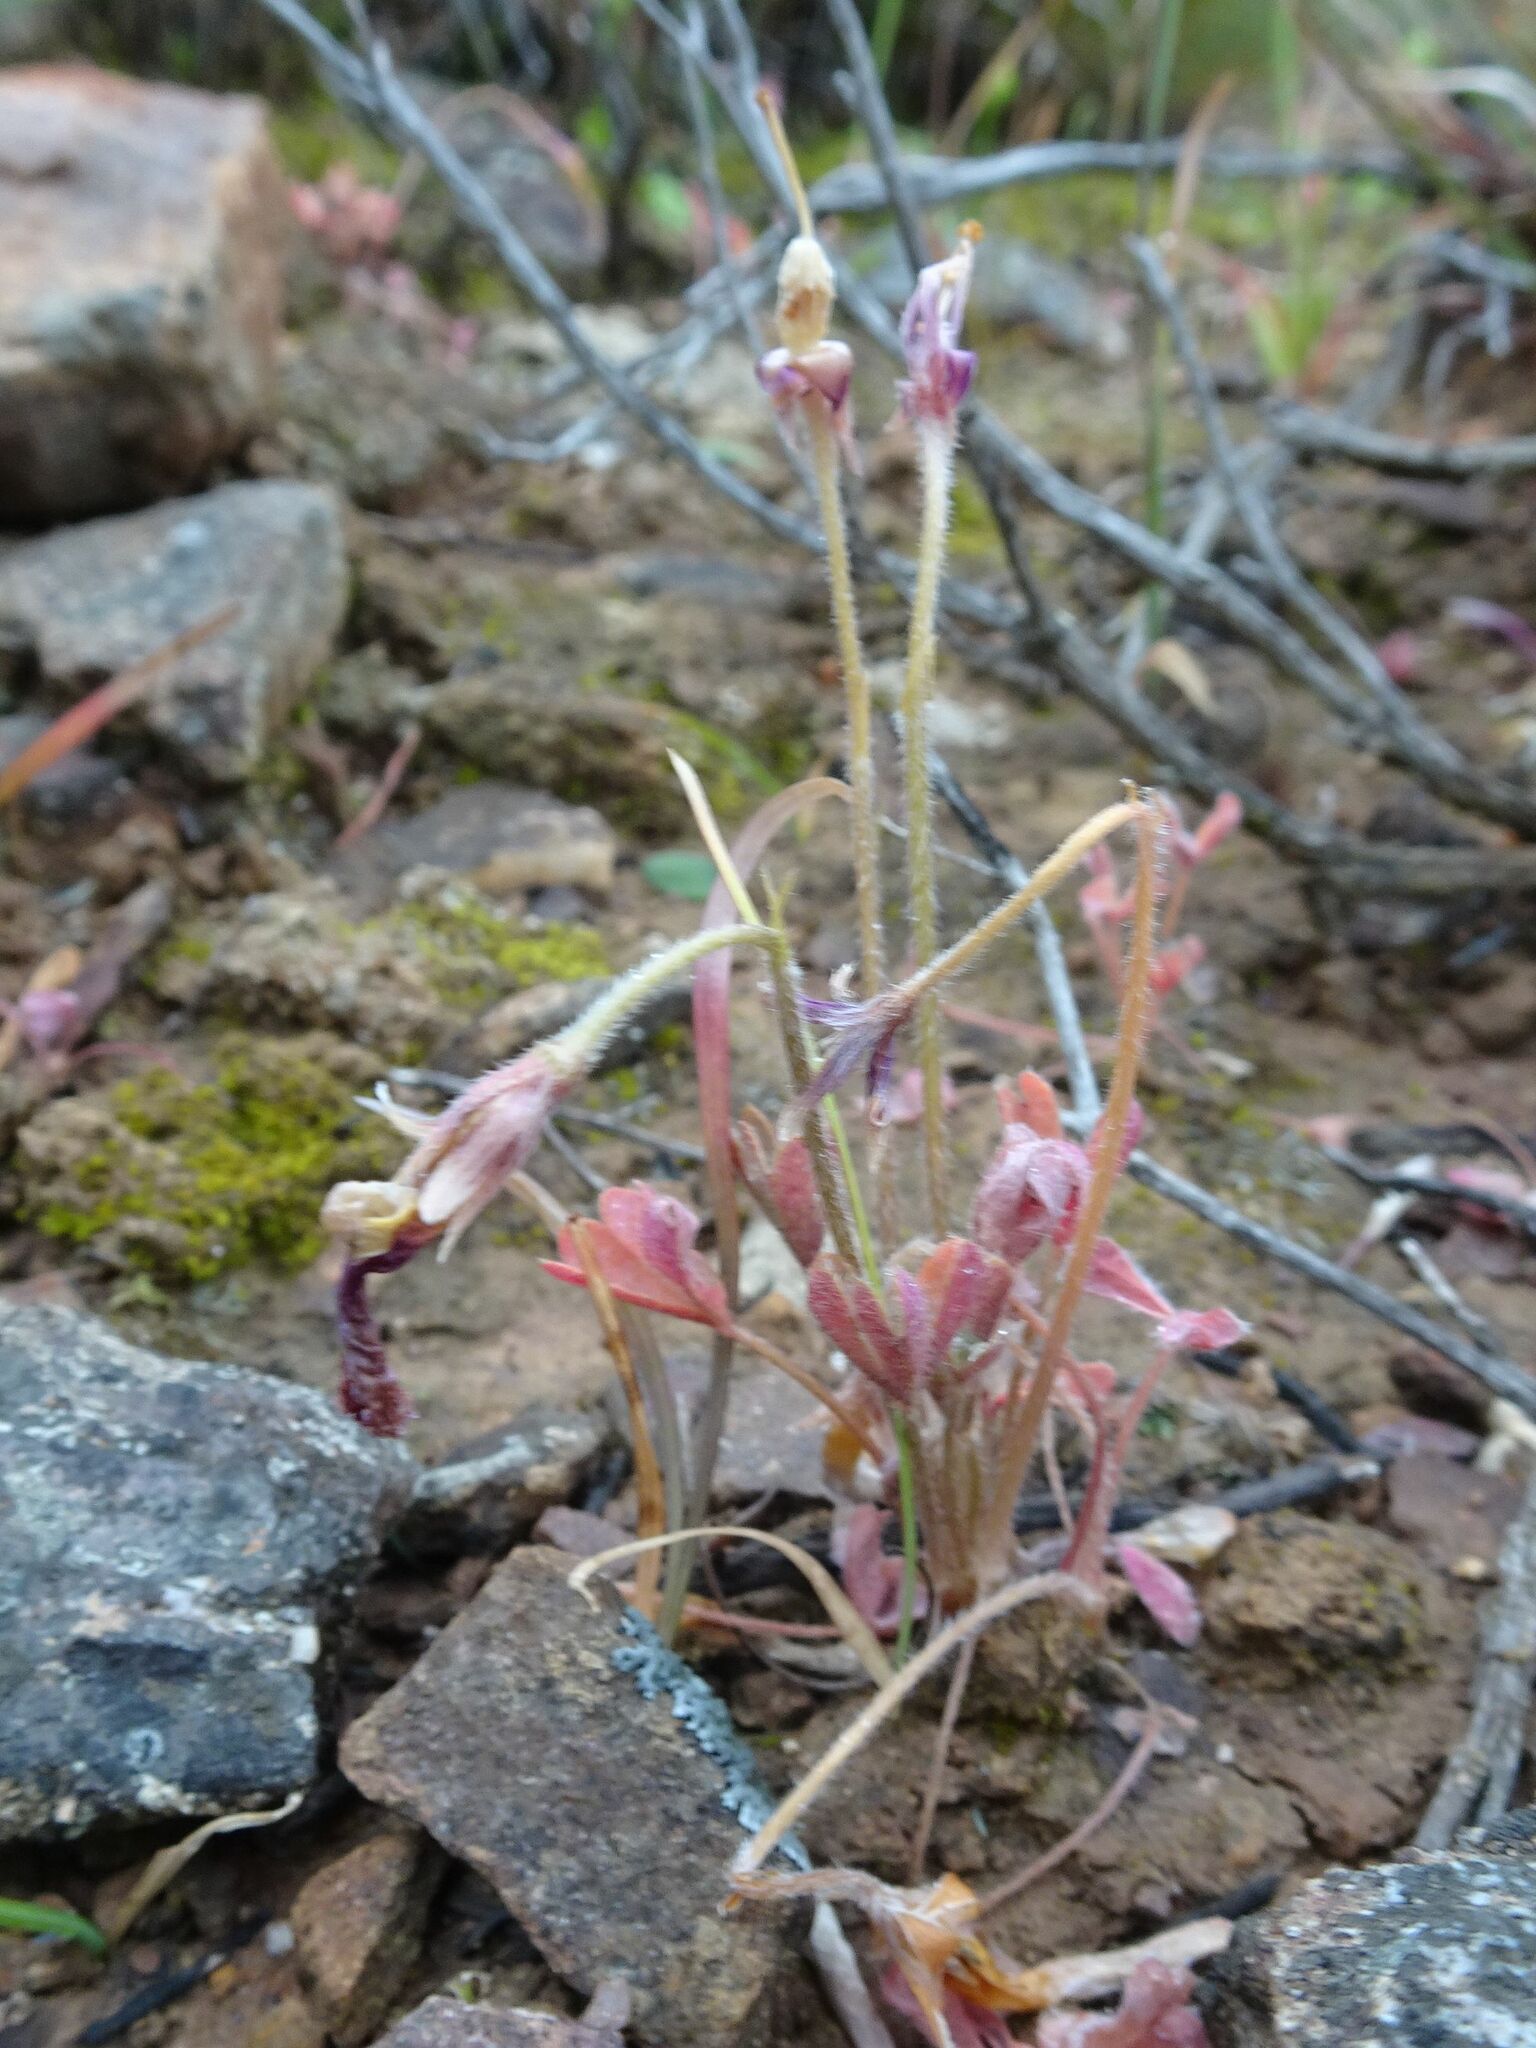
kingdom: Plantae
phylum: Tracheophyta
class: Magnoliopsida
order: Oxalidales
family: Oxalidaceae
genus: Oxalis
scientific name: Oxalis obtusa
